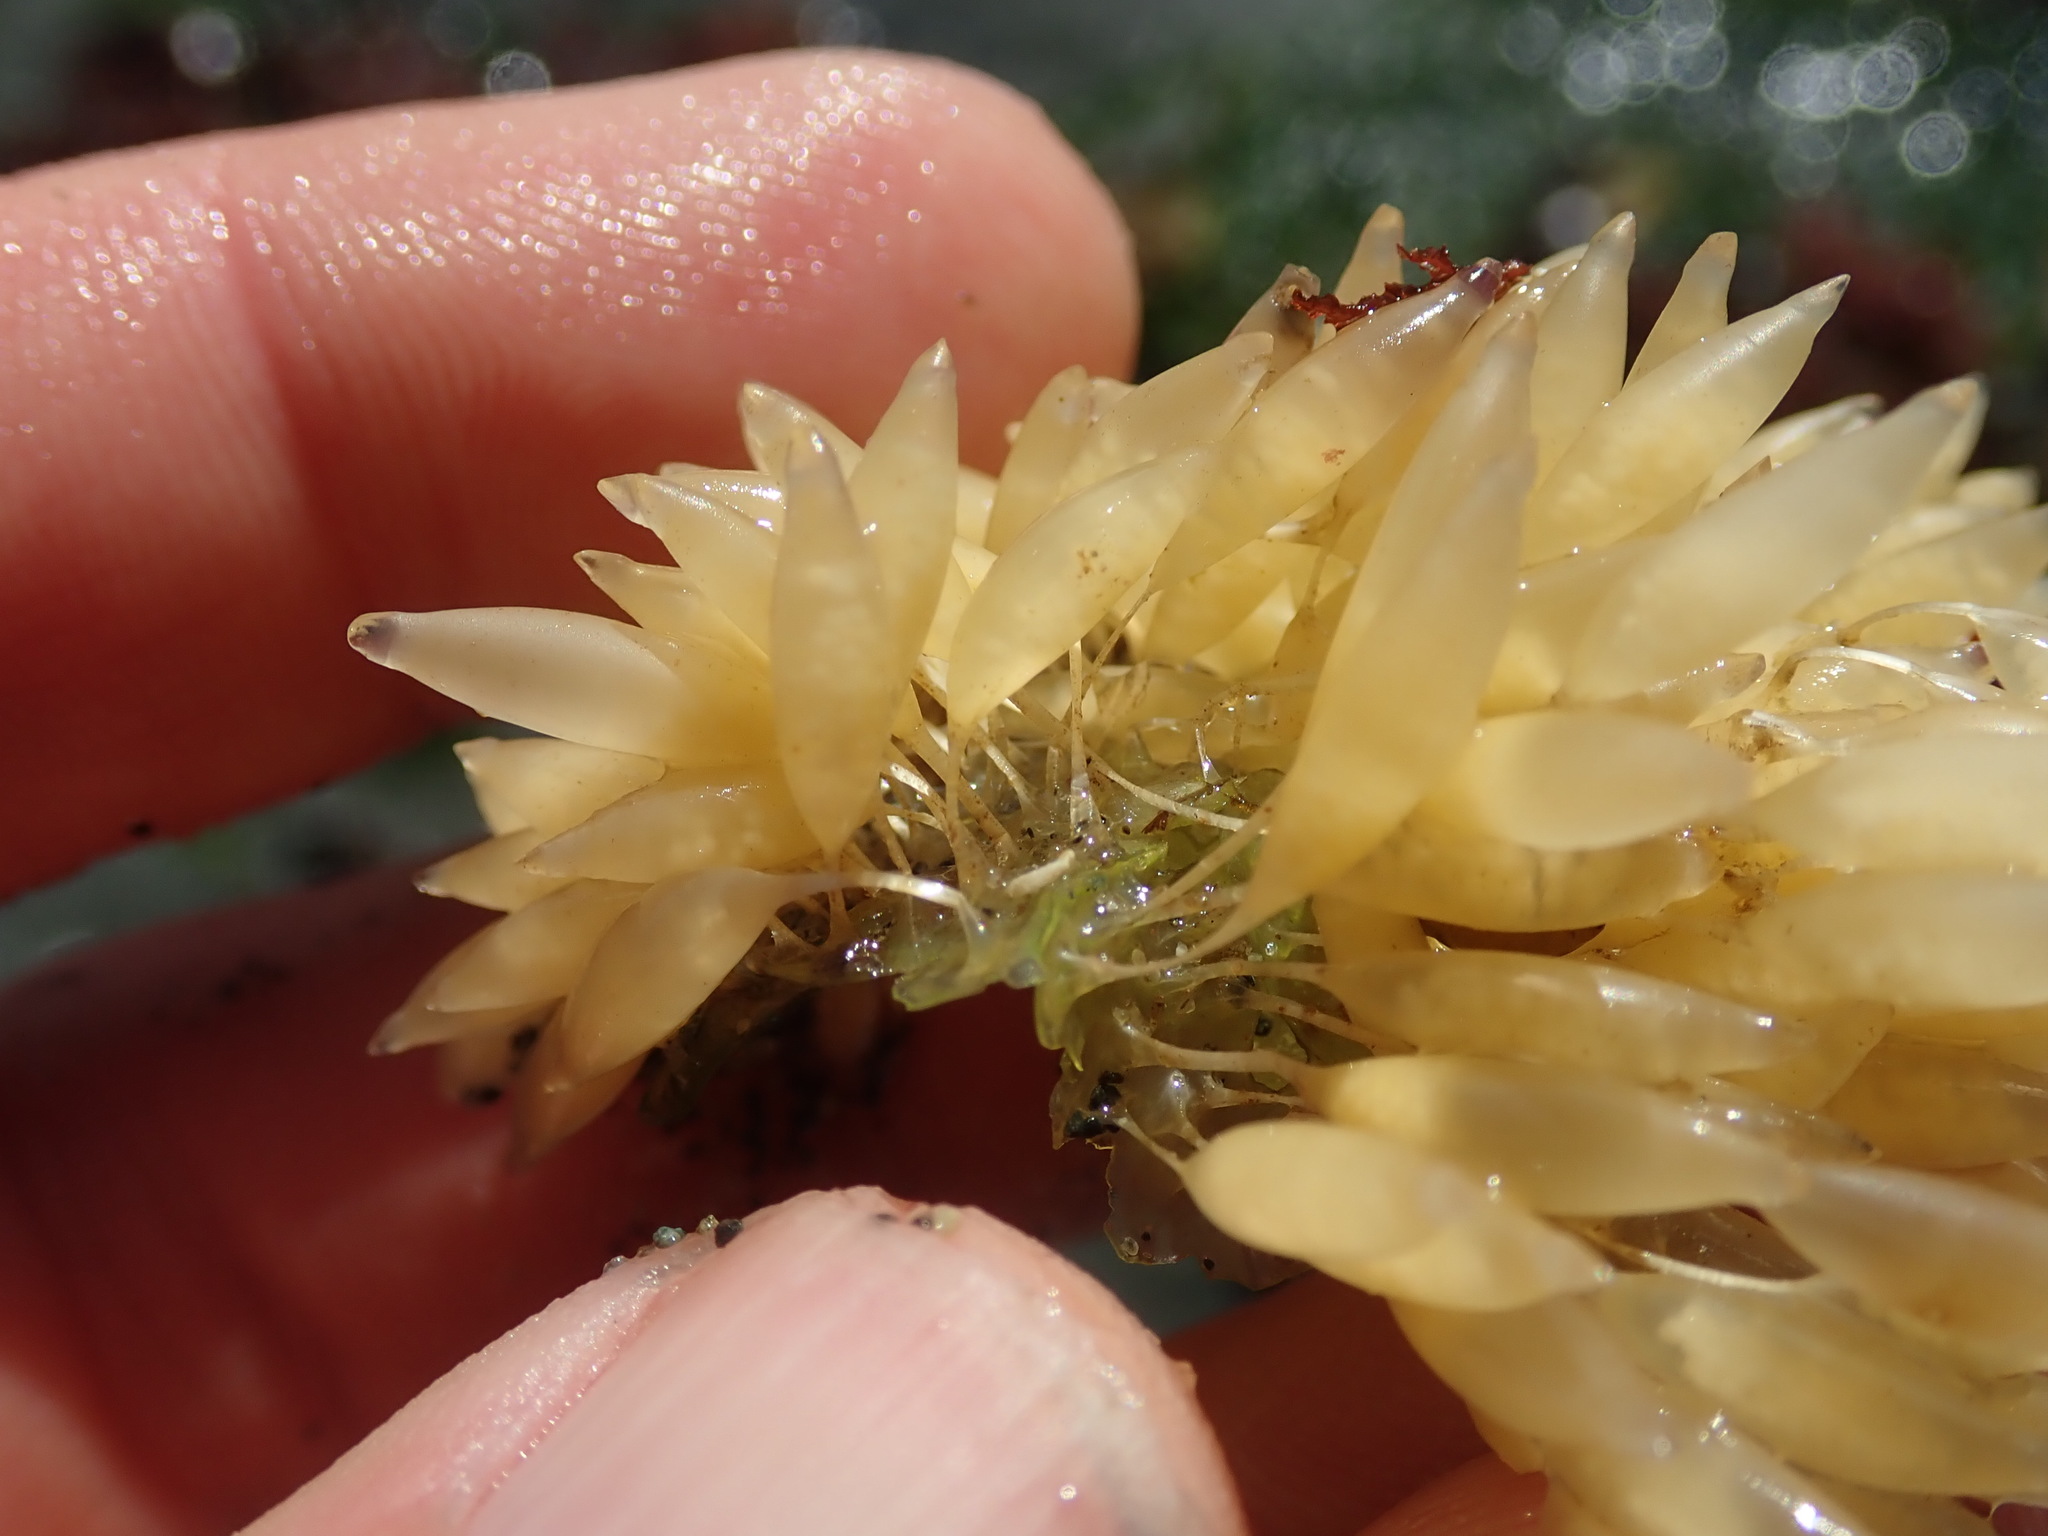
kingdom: Animalia
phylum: Mollusca
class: Gastropoda
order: Neogastropoda
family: Muricidae
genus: Nucella
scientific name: Nucella lamellosa
